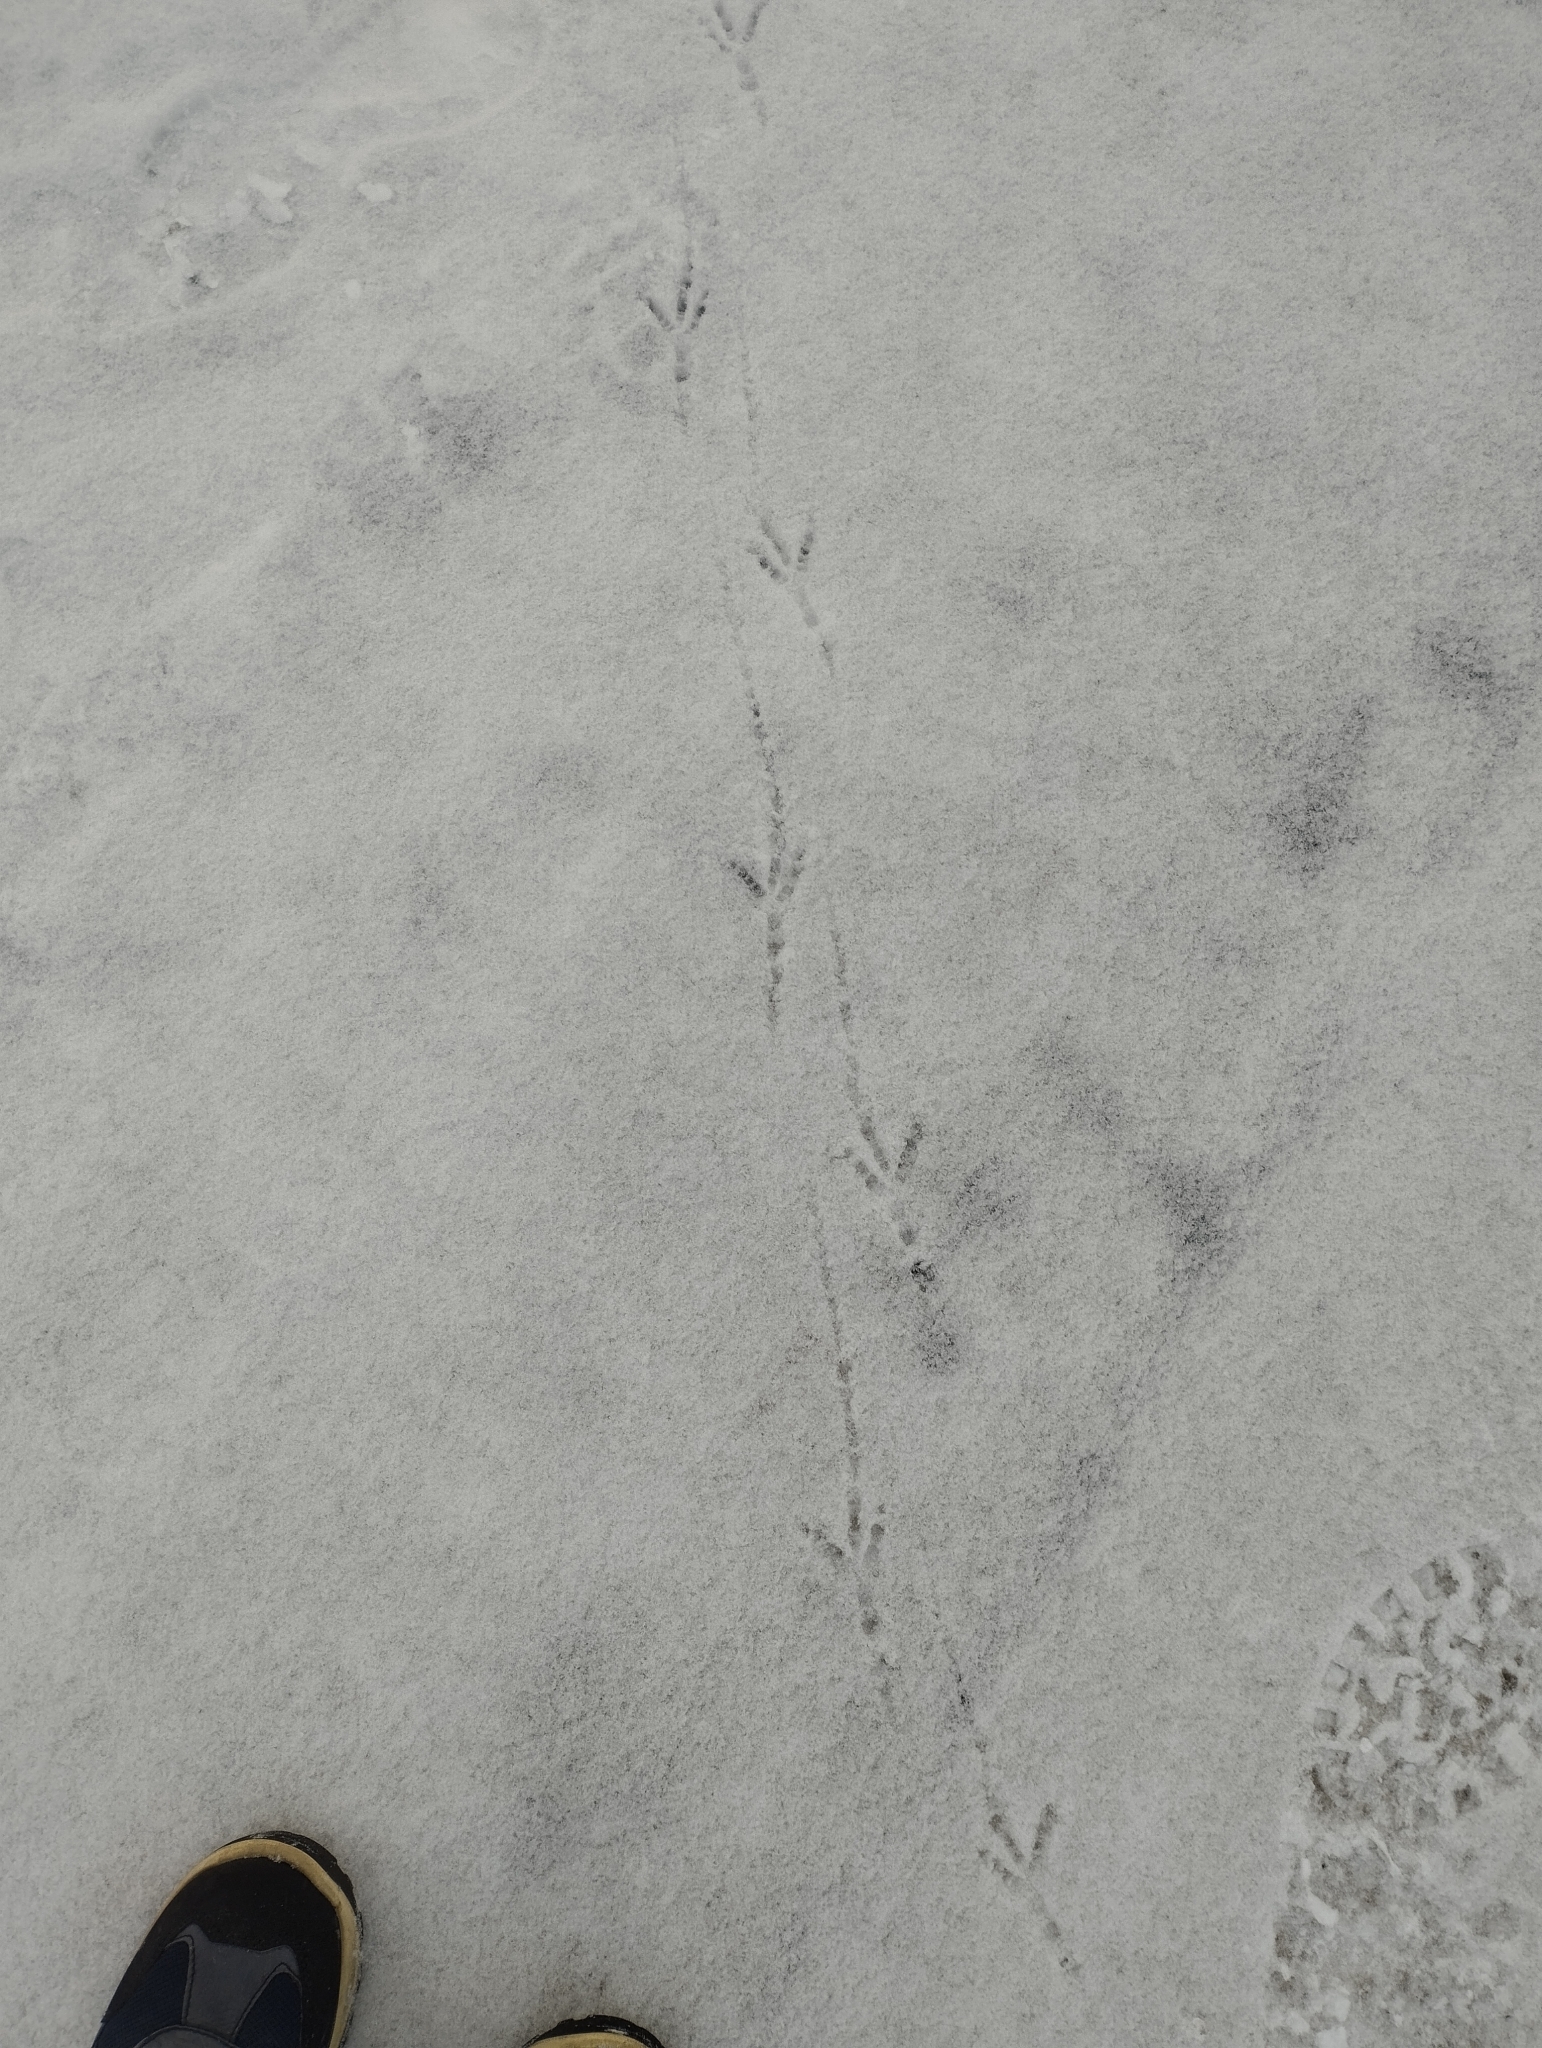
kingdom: Animalia
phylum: Chordata
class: Aves
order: Columbiformes
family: Columbidae
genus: Columba
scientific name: Columba livia
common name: Rock pigeon
